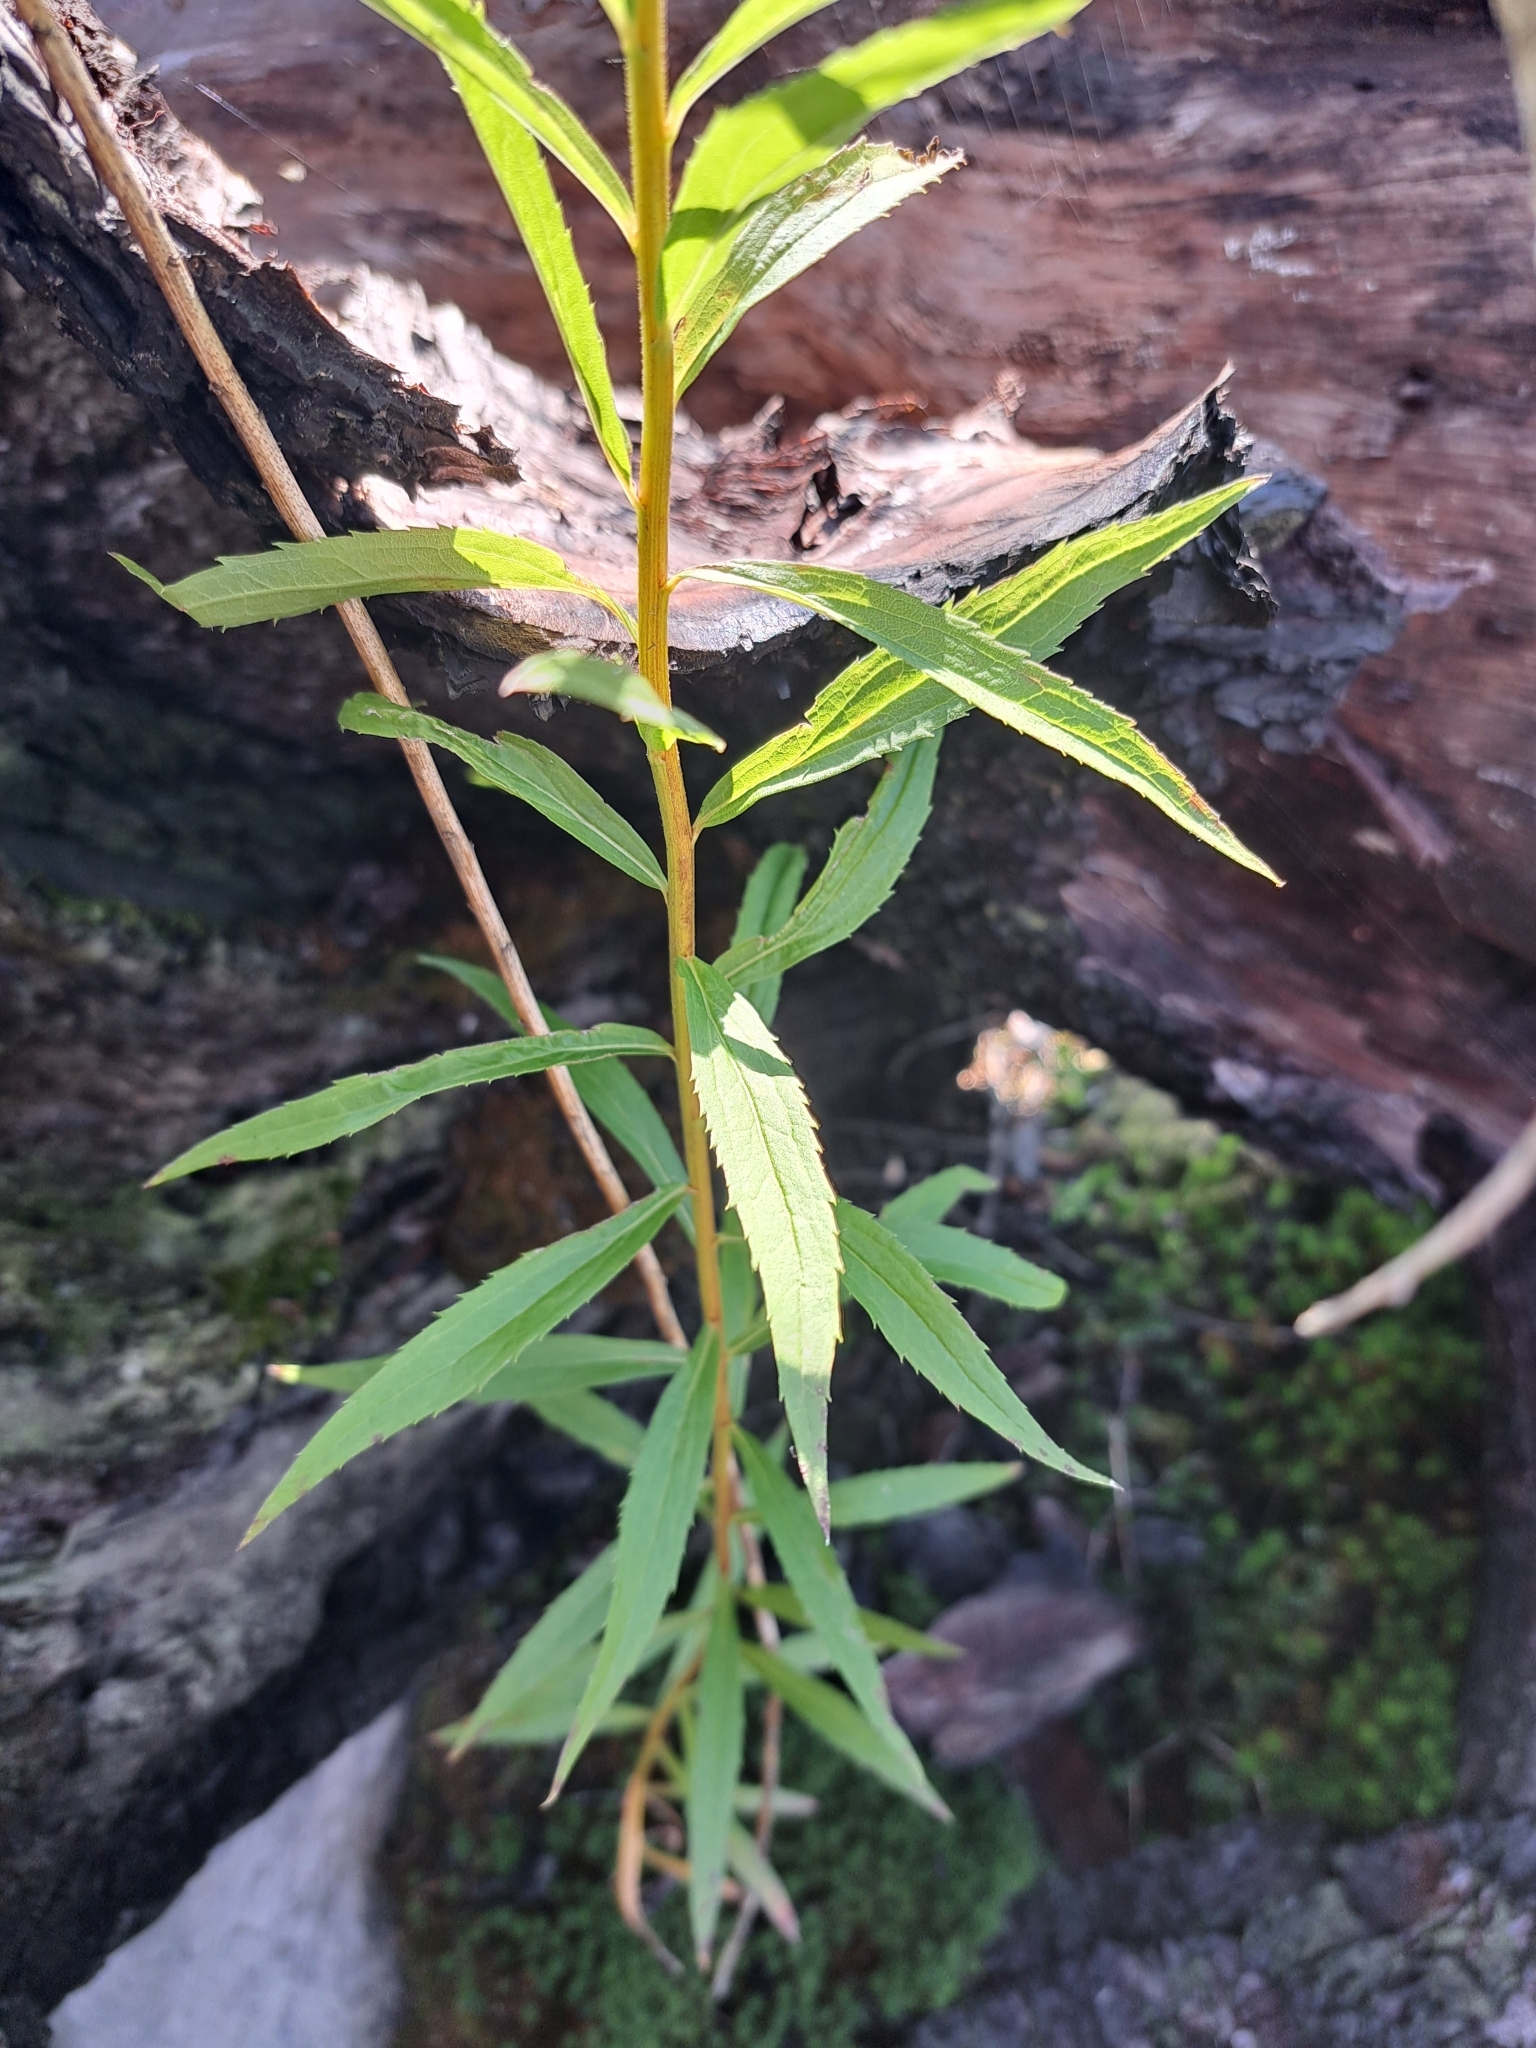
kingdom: Plantae
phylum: Tracheophyta
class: Magnoliopsida
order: Asterales
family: Asteraceae
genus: Solidago
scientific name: Solidago canadensis
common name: Canada goldenrod
